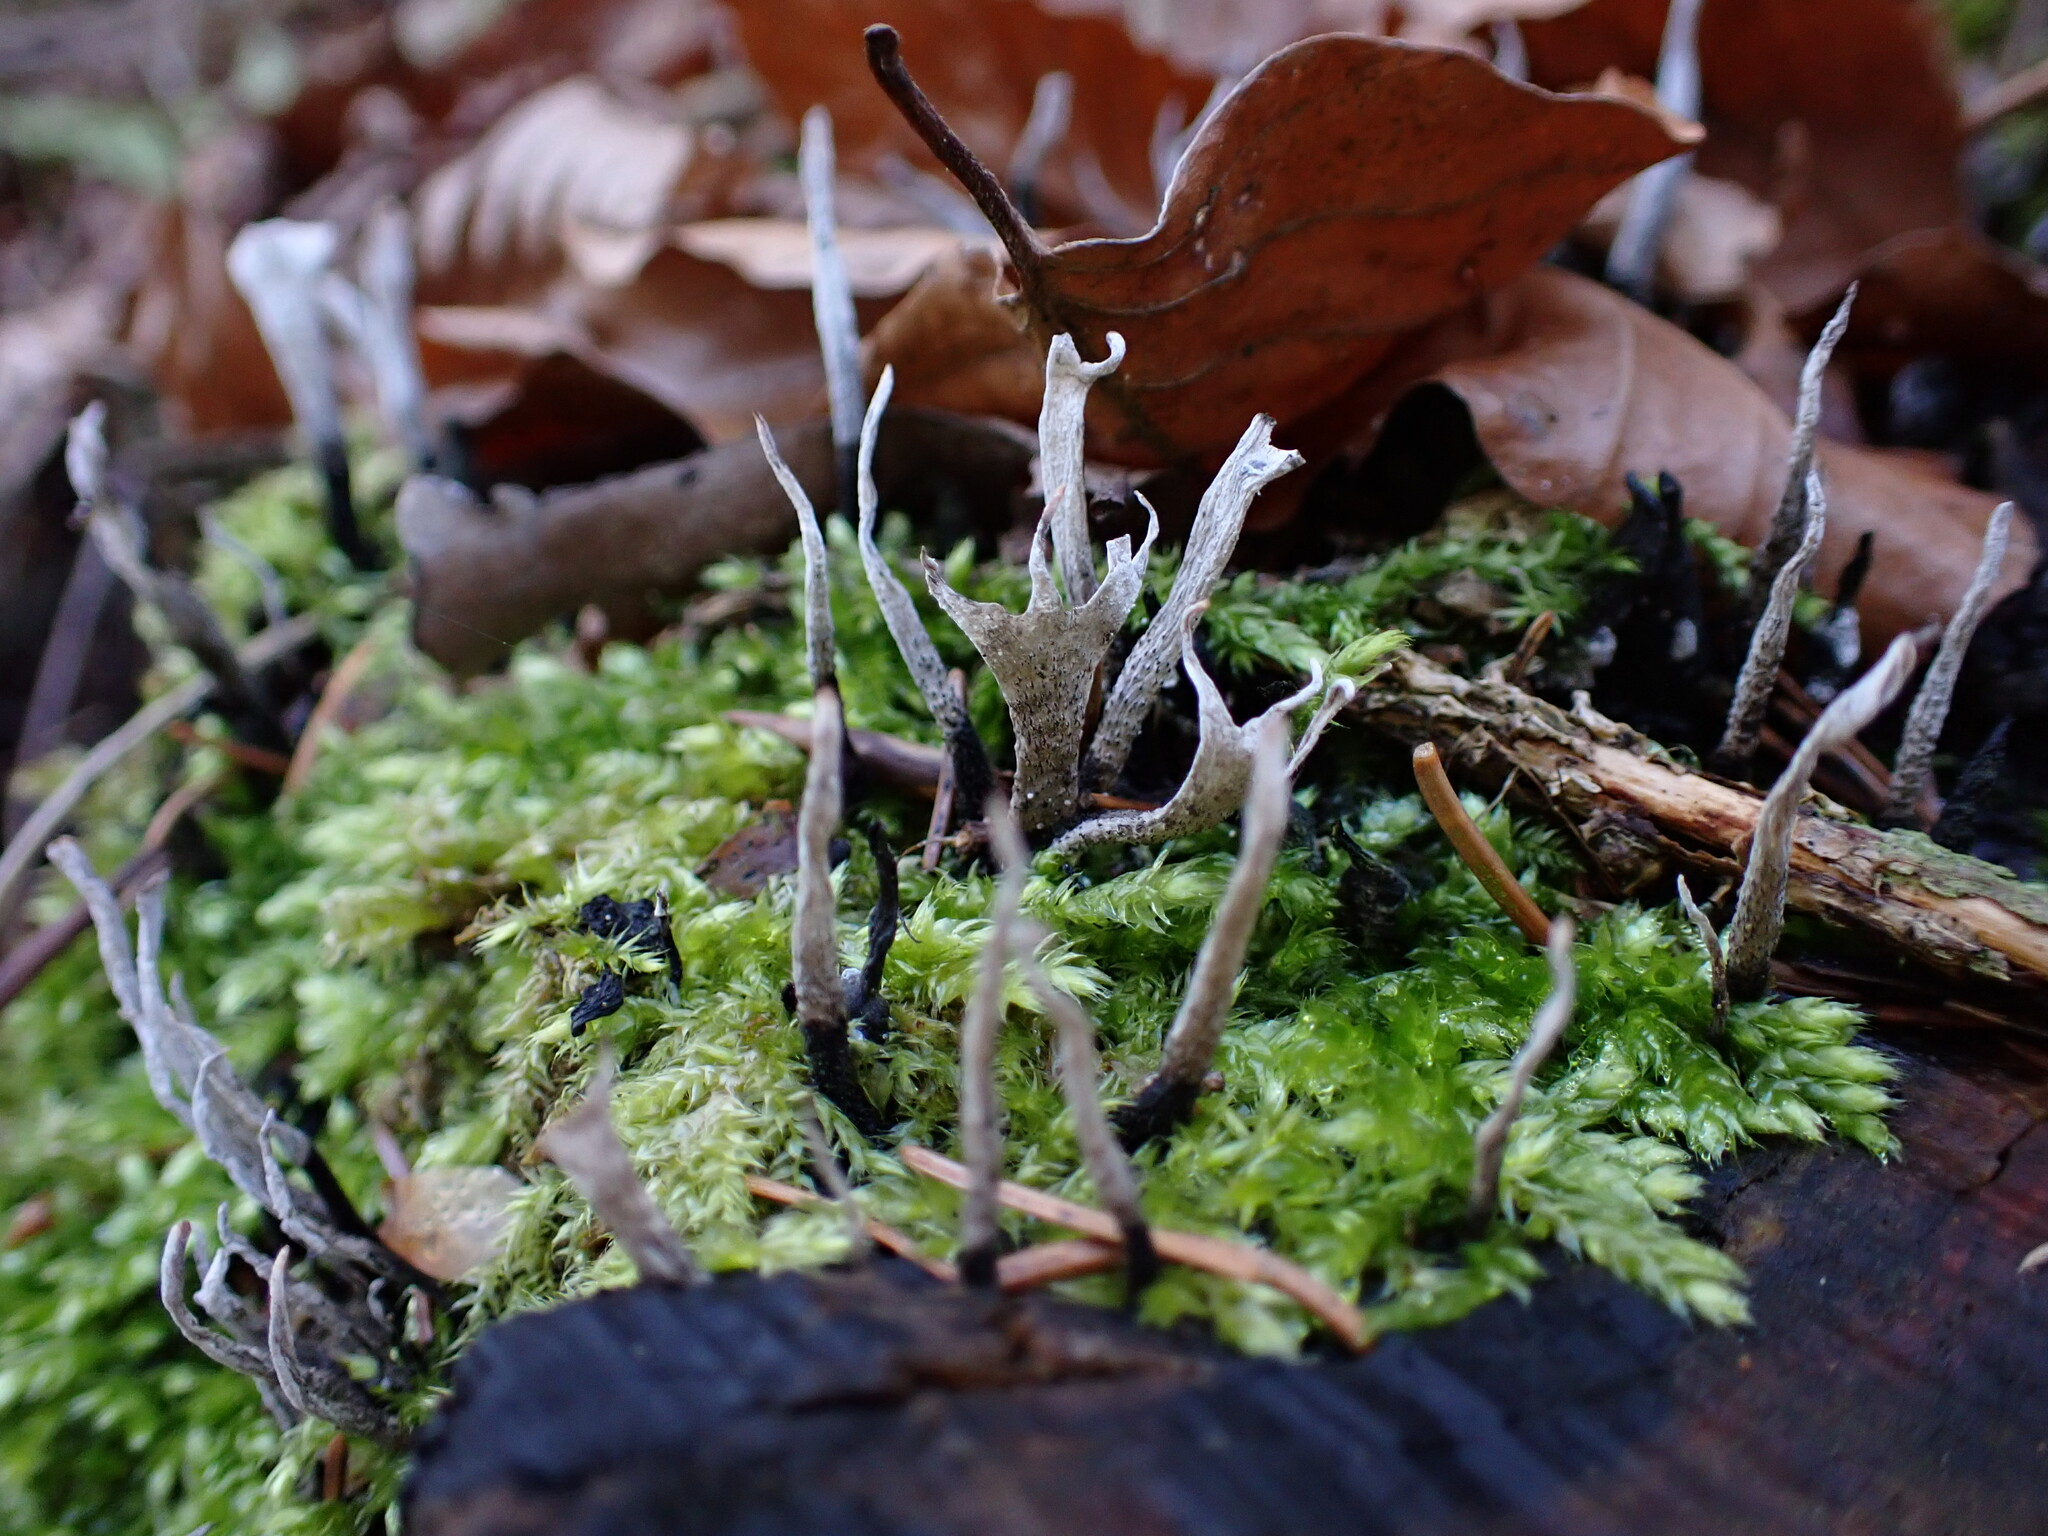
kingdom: Fungi
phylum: Ascomycota
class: Sordariomycetes
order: Xylariales
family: Xylariaceae
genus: Xylaria
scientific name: Xylaria hypoxylon
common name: Candle-snuff fungus
